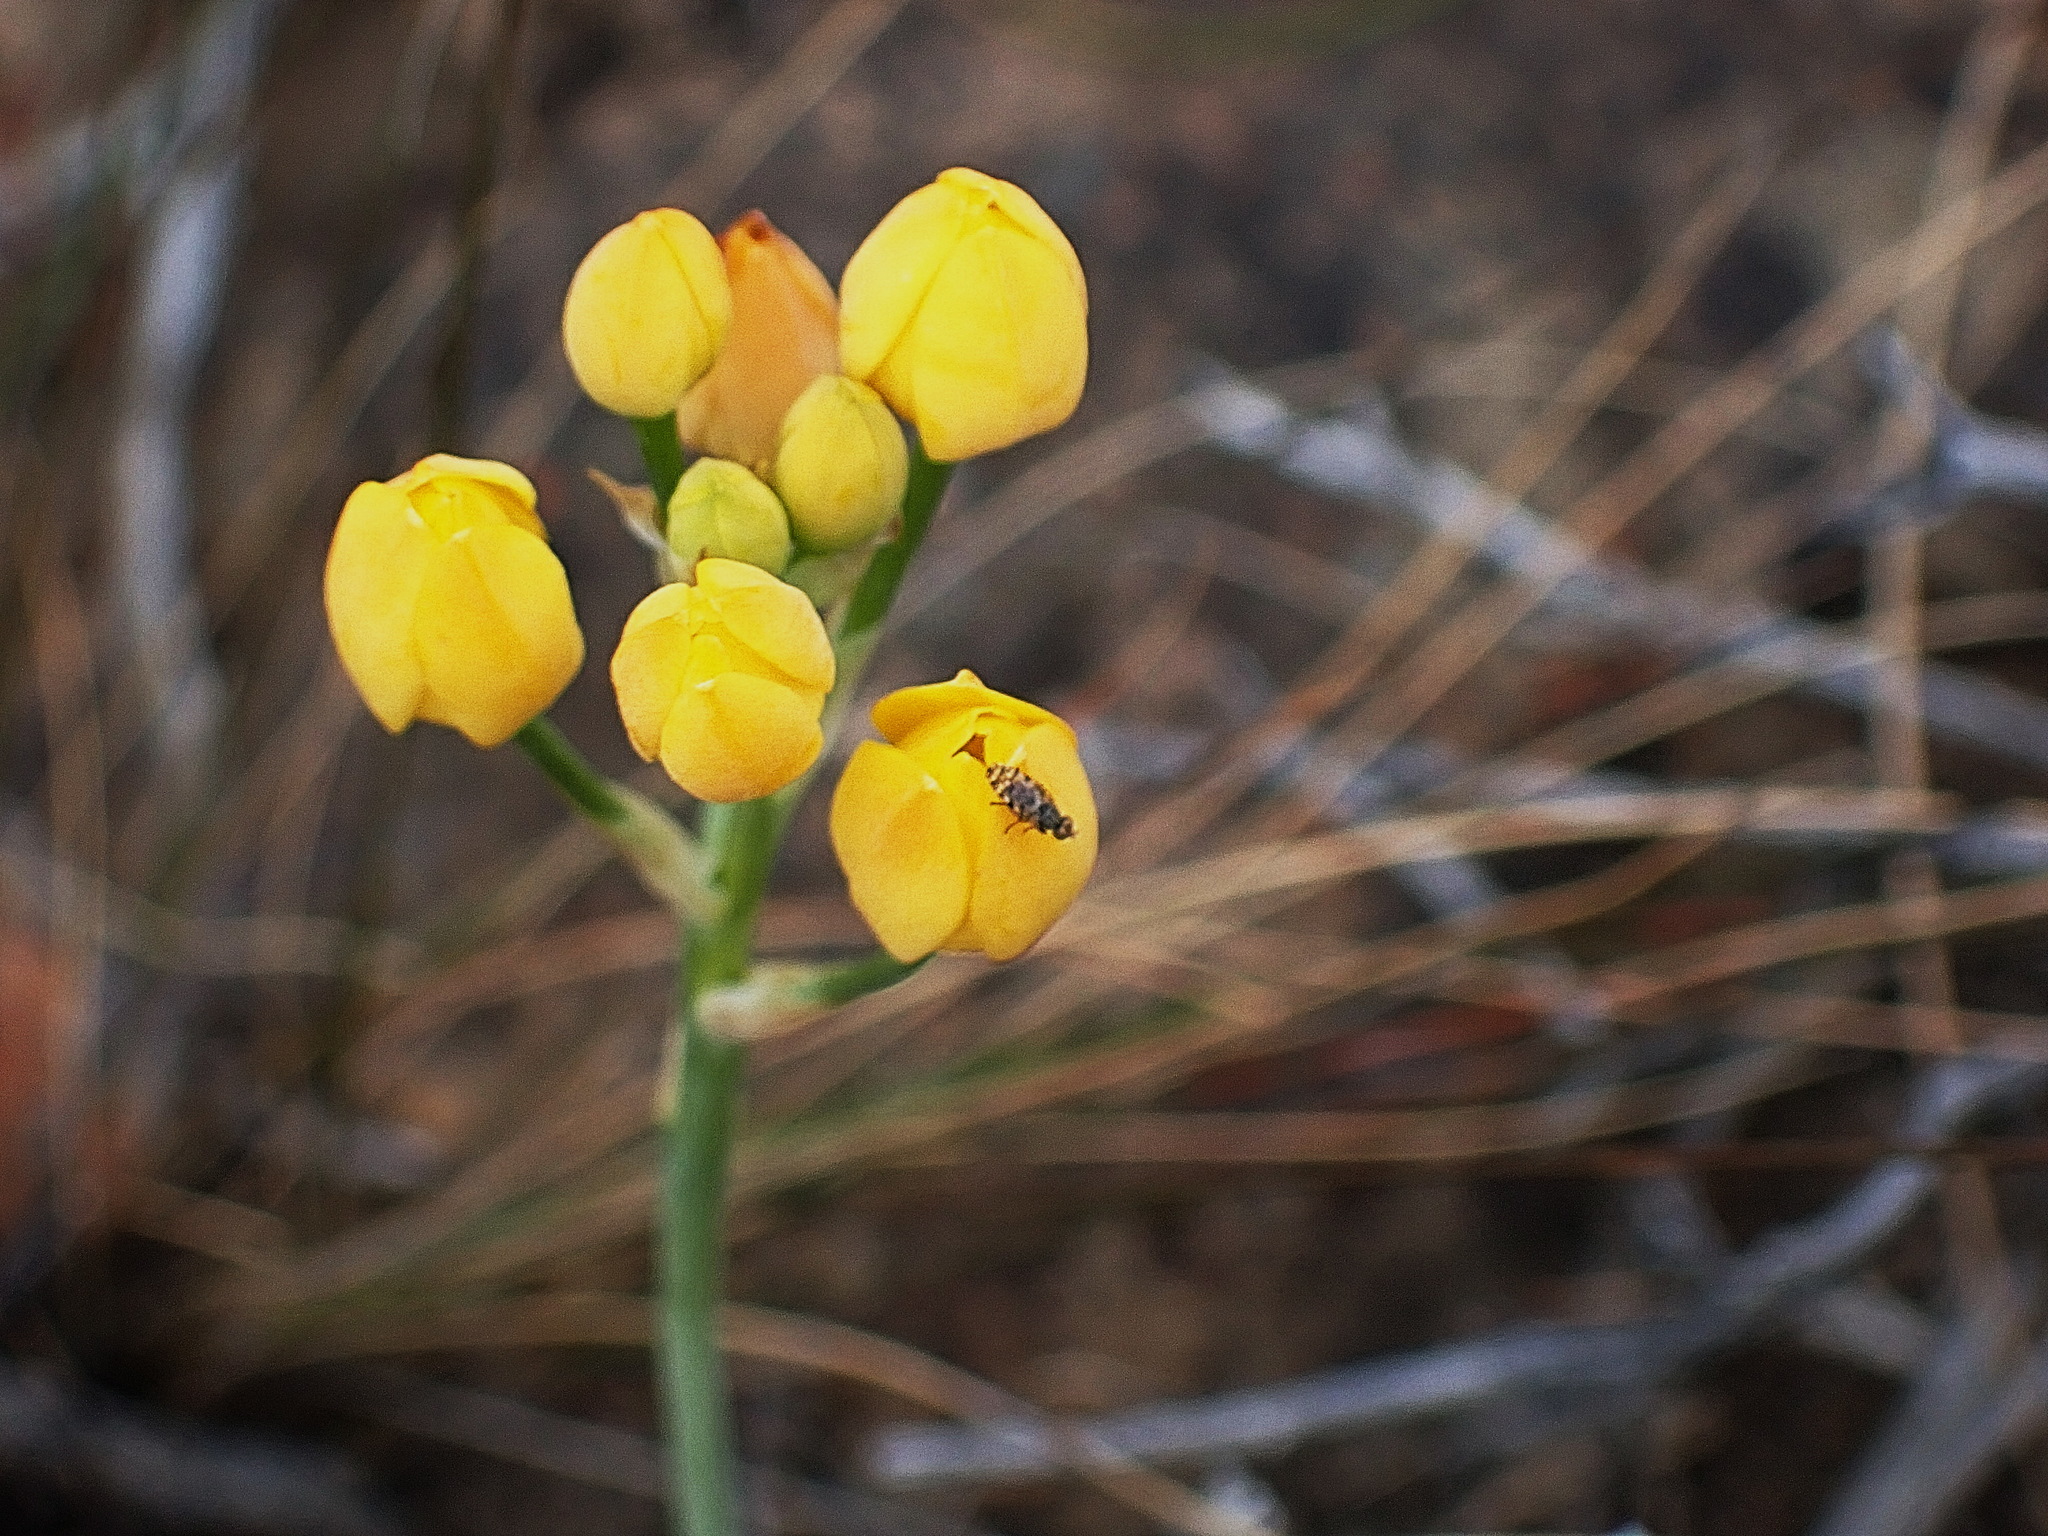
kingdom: Plantae
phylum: Tracheophyta
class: Liliopsida
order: Asparagales
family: Asparagaceae
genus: Ornithogalum
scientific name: Ornithogalum dubium
